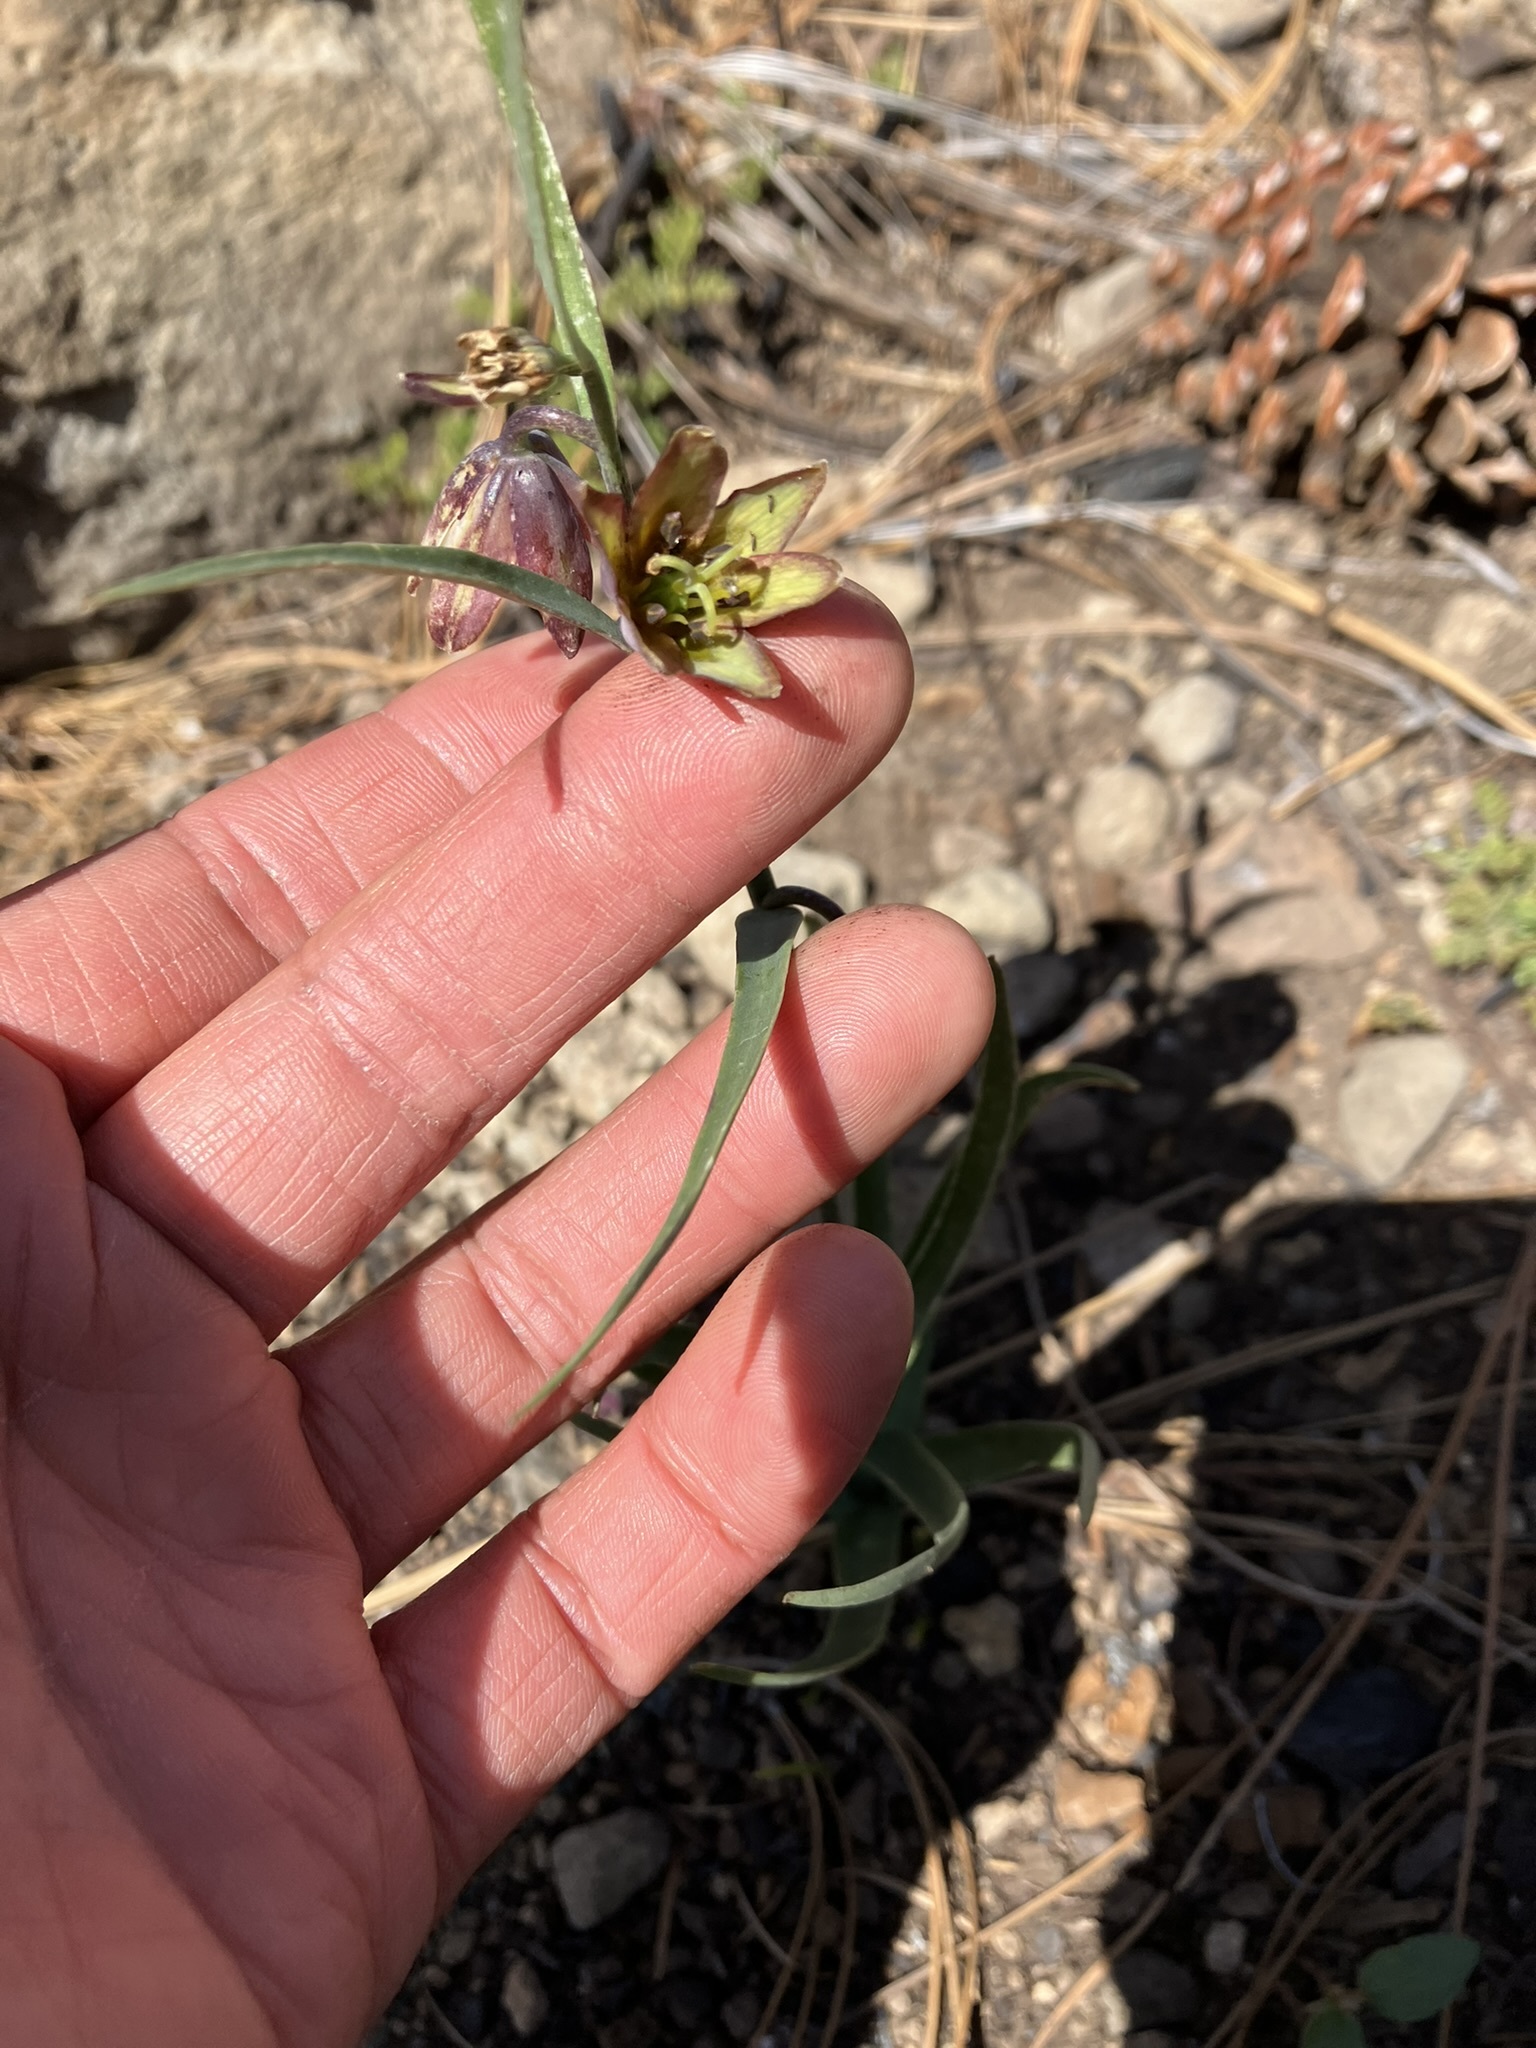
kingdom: Plantae
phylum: Tracheophyta
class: Liliopsida
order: Liliales
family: Liliaceae
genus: Fritillaria
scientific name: Fritillaria micrantha
